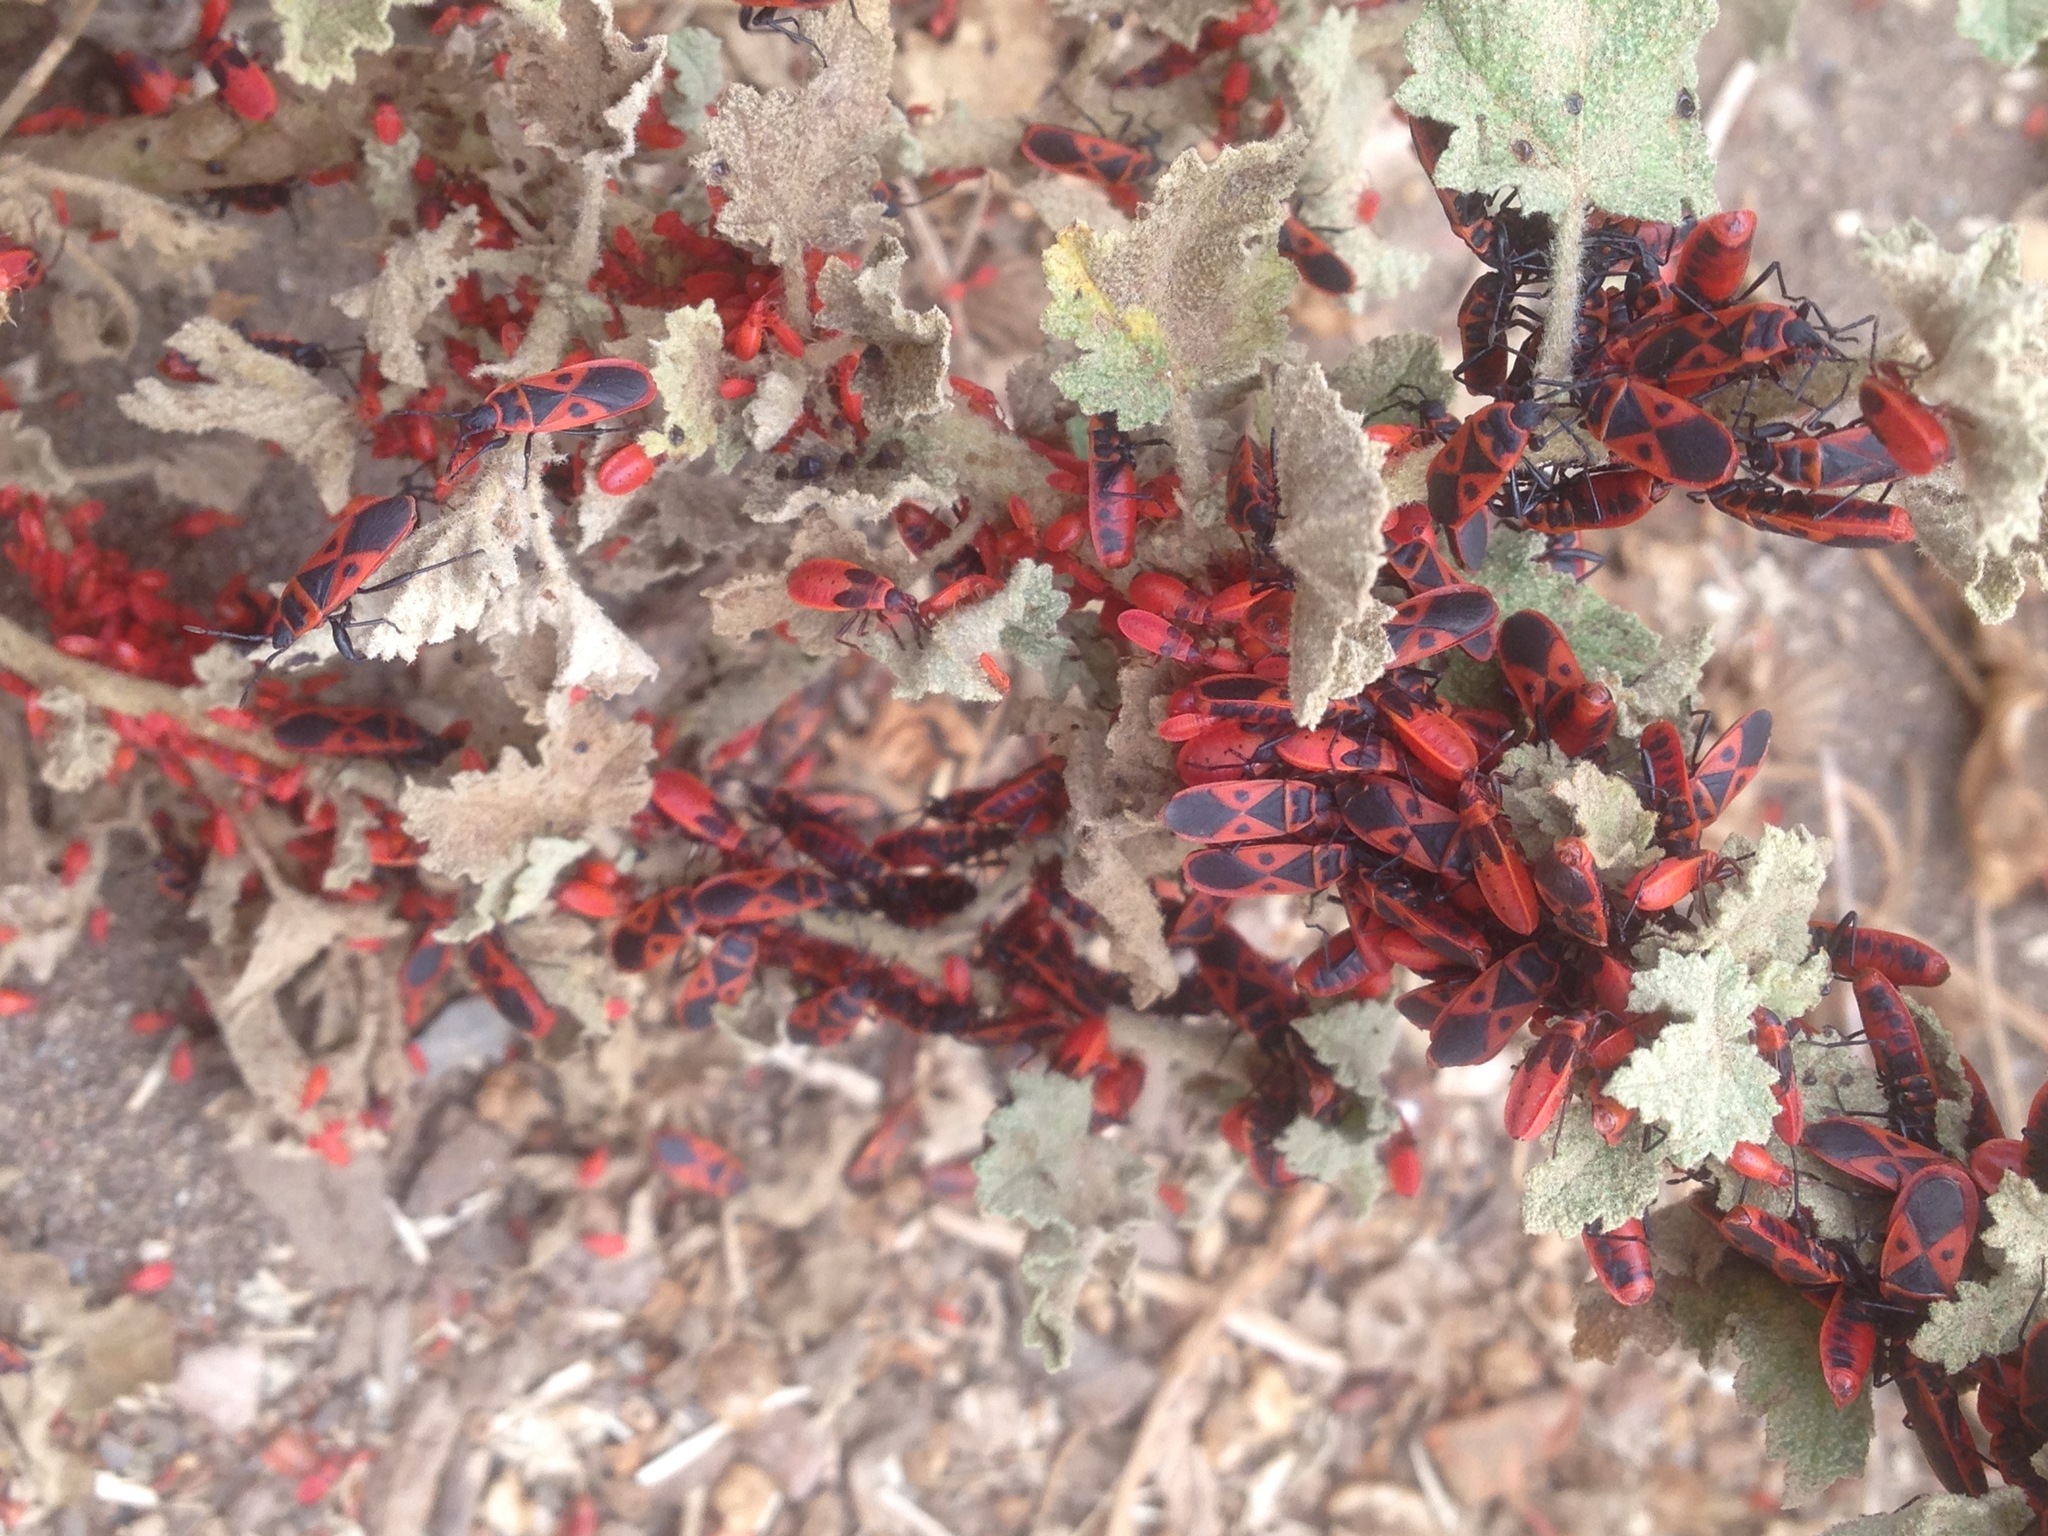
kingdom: Animalia
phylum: Arthropoda
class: Insecta
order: Hemiptera
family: Pyrrhocoridae
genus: Scantius
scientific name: Scantius aegyptius
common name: Red bug
